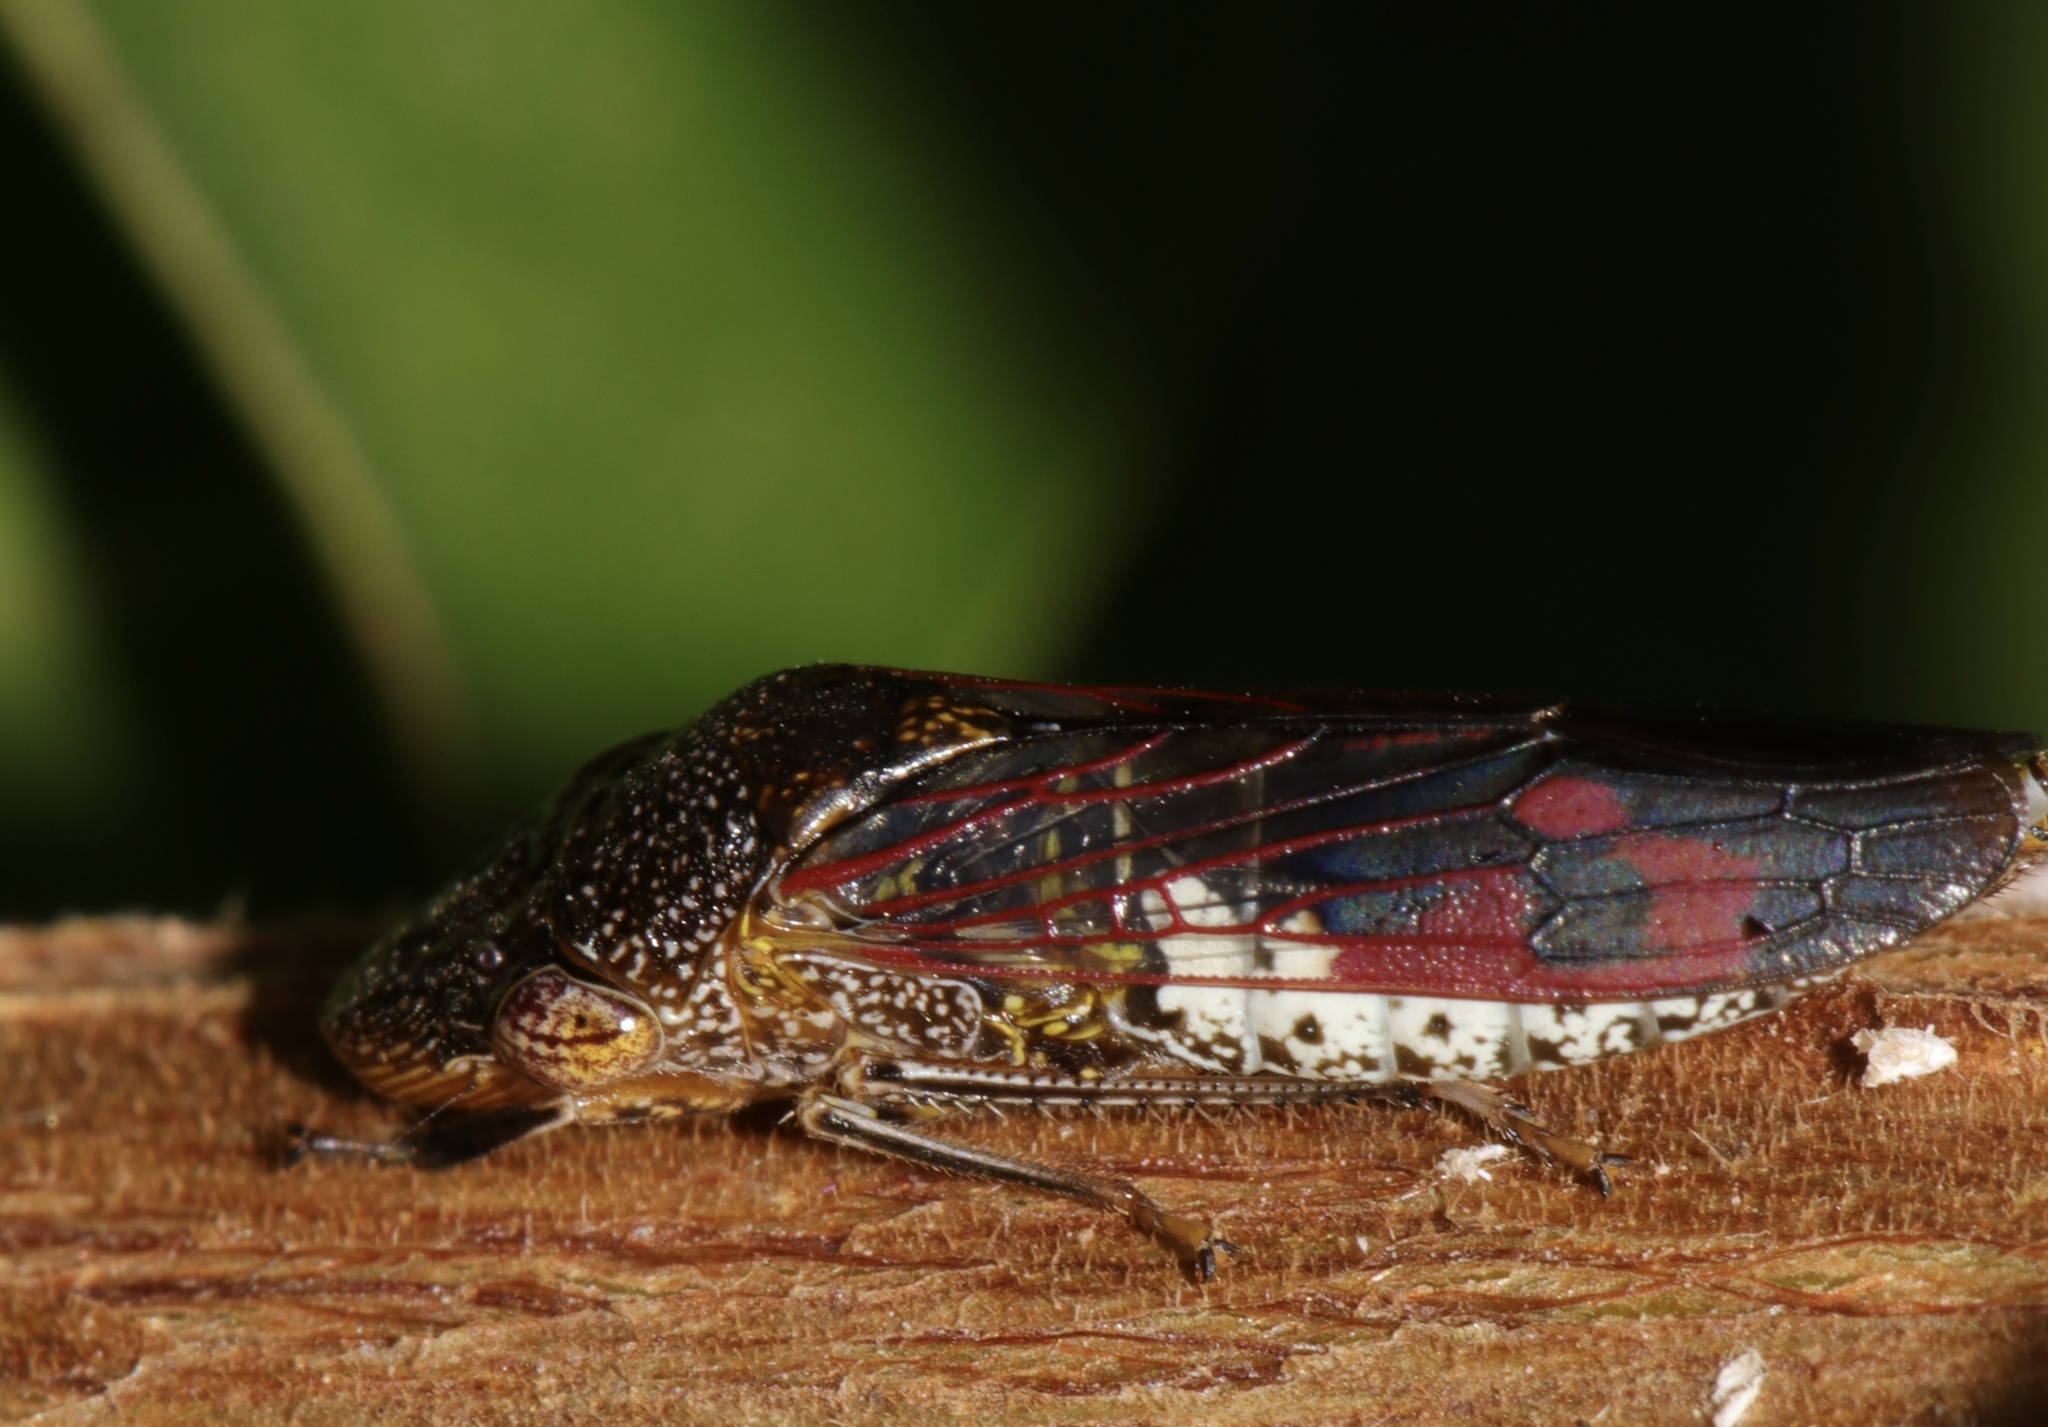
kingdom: Animalia
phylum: Arthropoda
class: Insecta
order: Hemiptera
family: Cicadellidae
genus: Homalodisca
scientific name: Homalodisca vitripennis
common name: Glassy-winged sharpshooter
